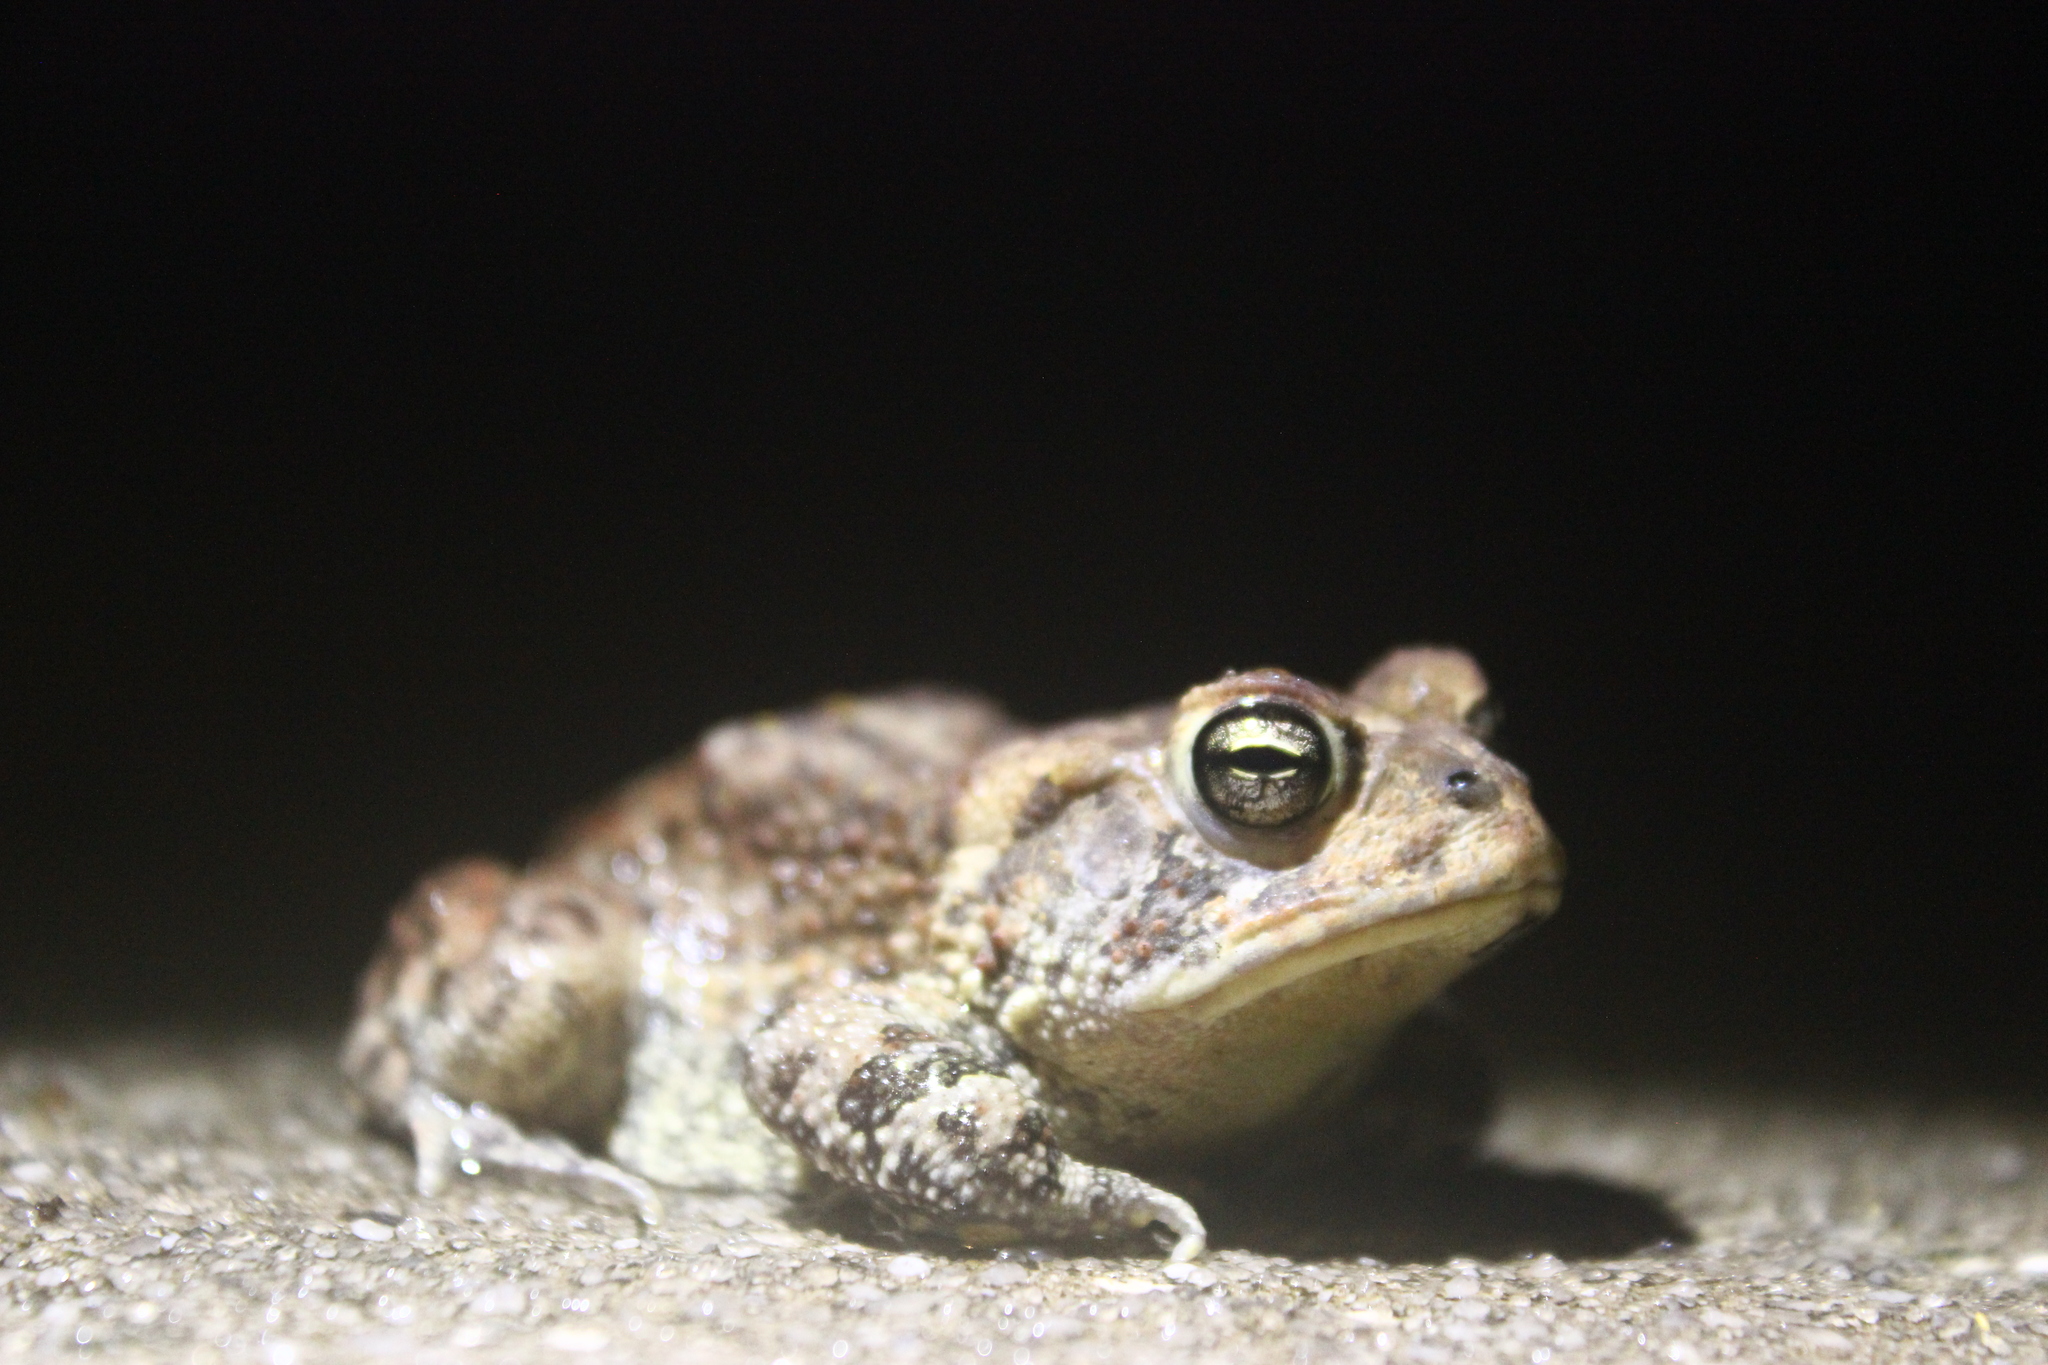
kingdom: Animalia
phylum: Chordata
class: Amphibia
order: Anura
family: Bufonidae
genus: Anaxyrus
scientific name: Anaxyrus terrestris
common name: Southern toad
